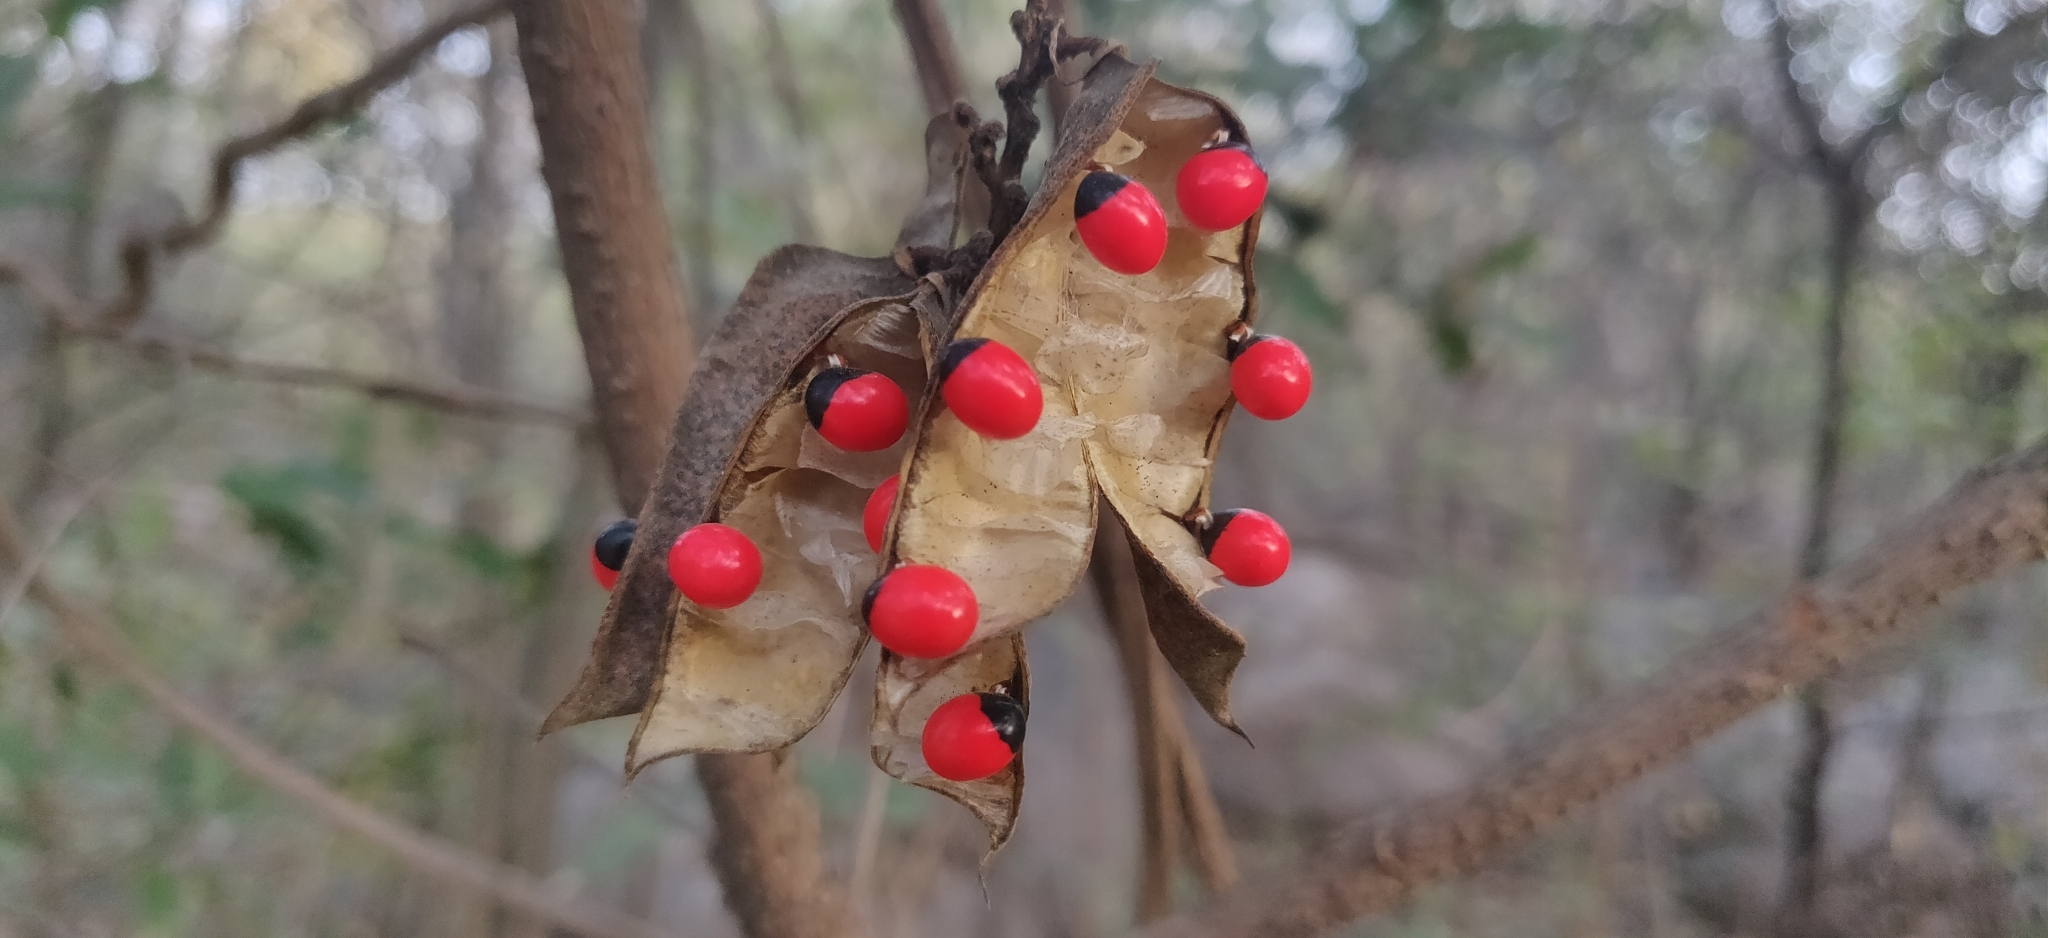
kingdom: Plantae
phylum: Tracheophyta
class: Magnoliopsida
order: Fabales
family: Fabaceae
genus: Abrus
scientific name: Abrus precatorius
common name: Rosarypea
